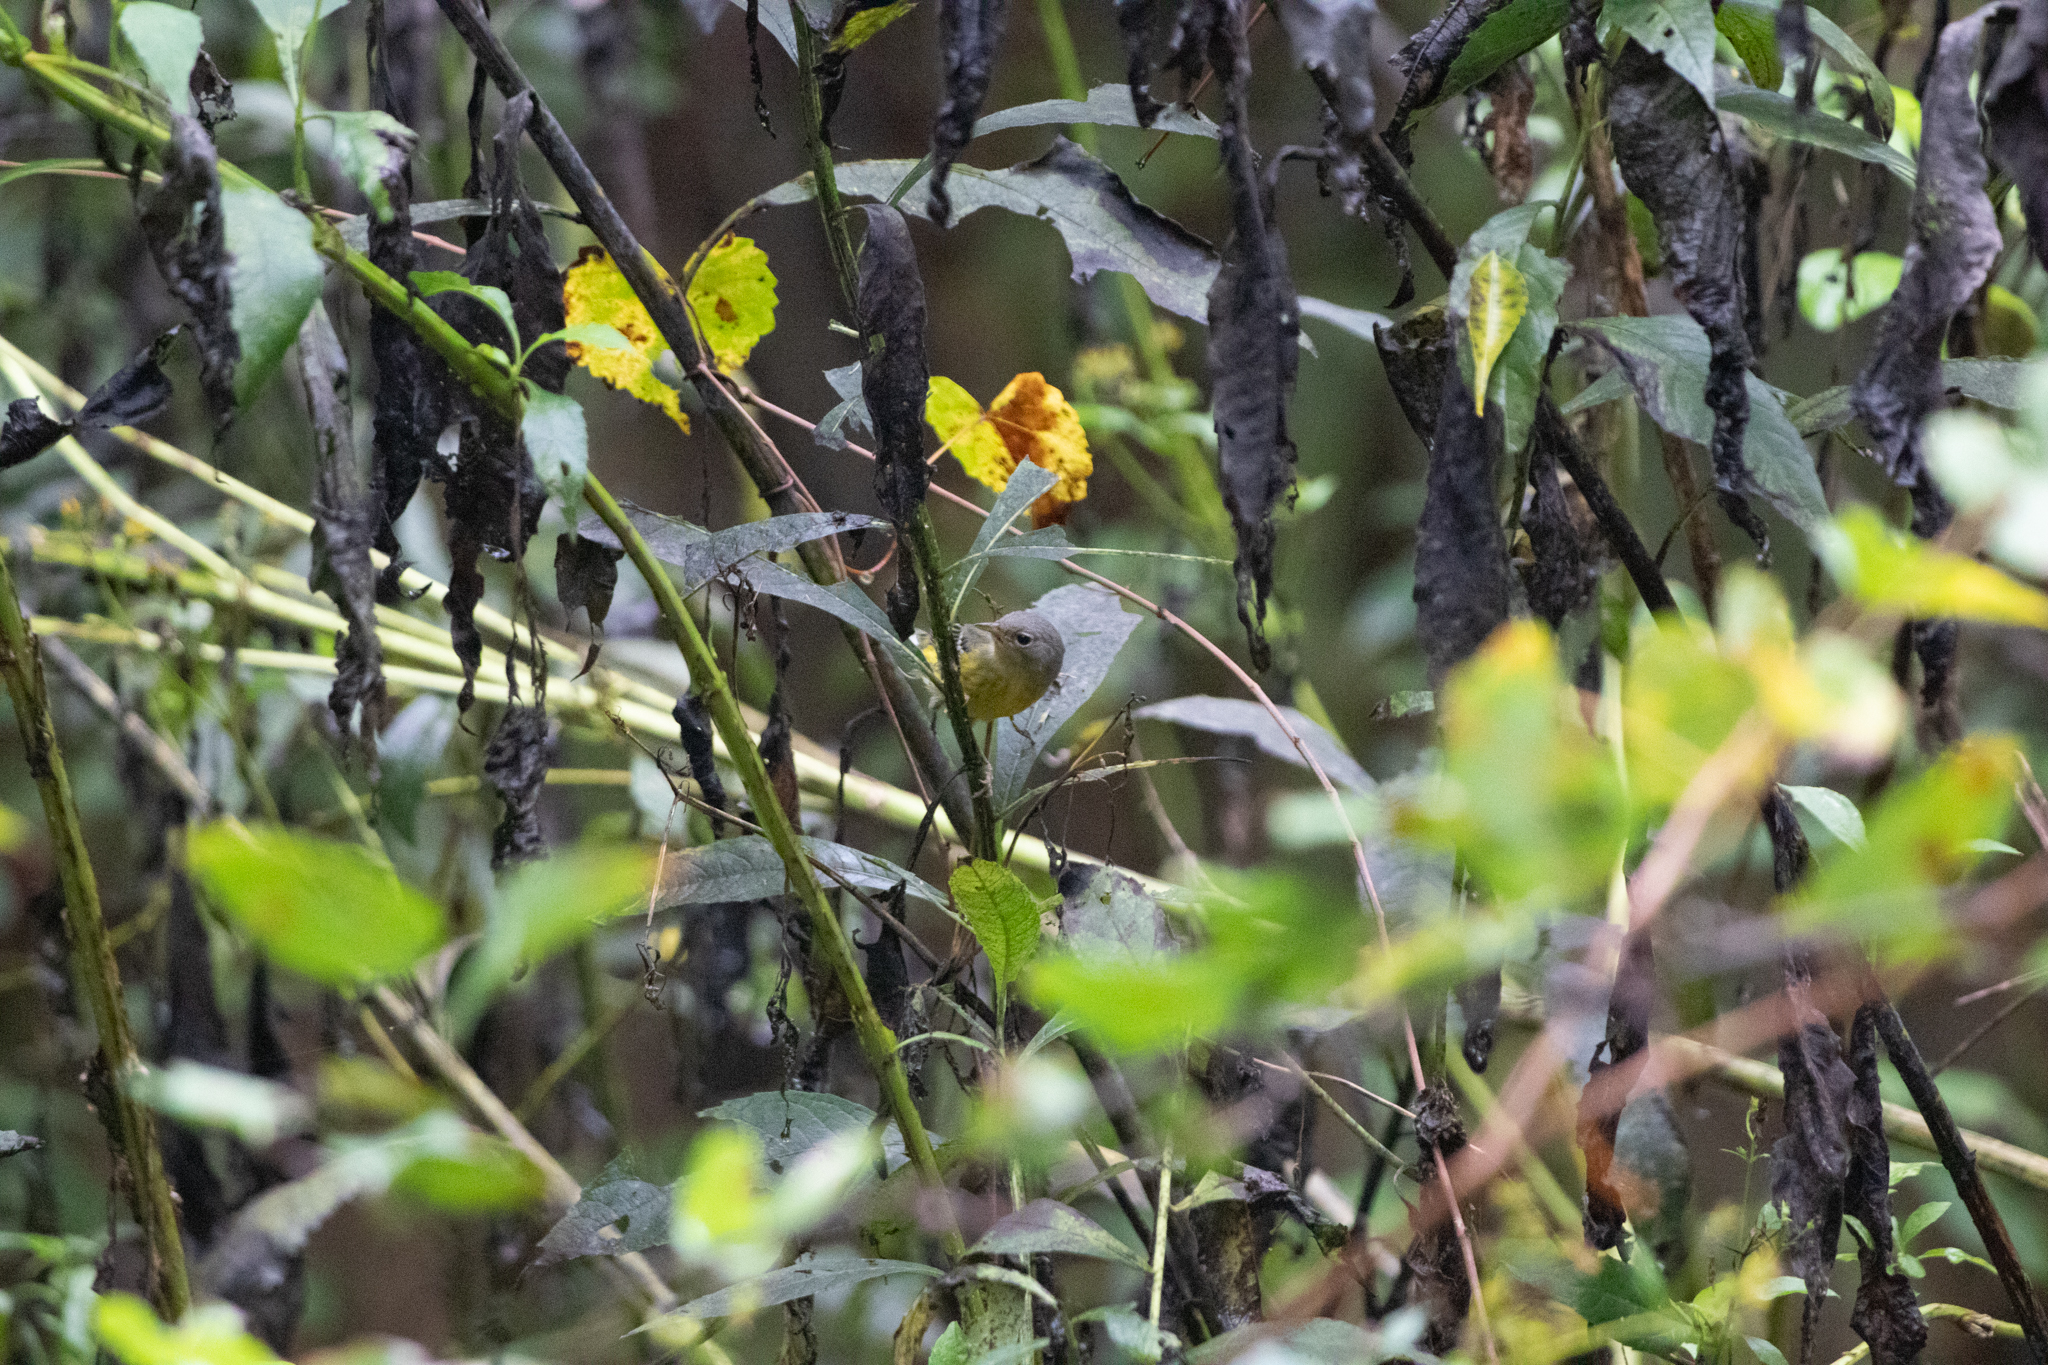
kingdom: Animalia
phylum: Chordata
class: Aves
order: Passeriformes
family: Parulidae
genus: Setophaga
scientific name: Setophaga magnolia
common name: Magnolia warbler
